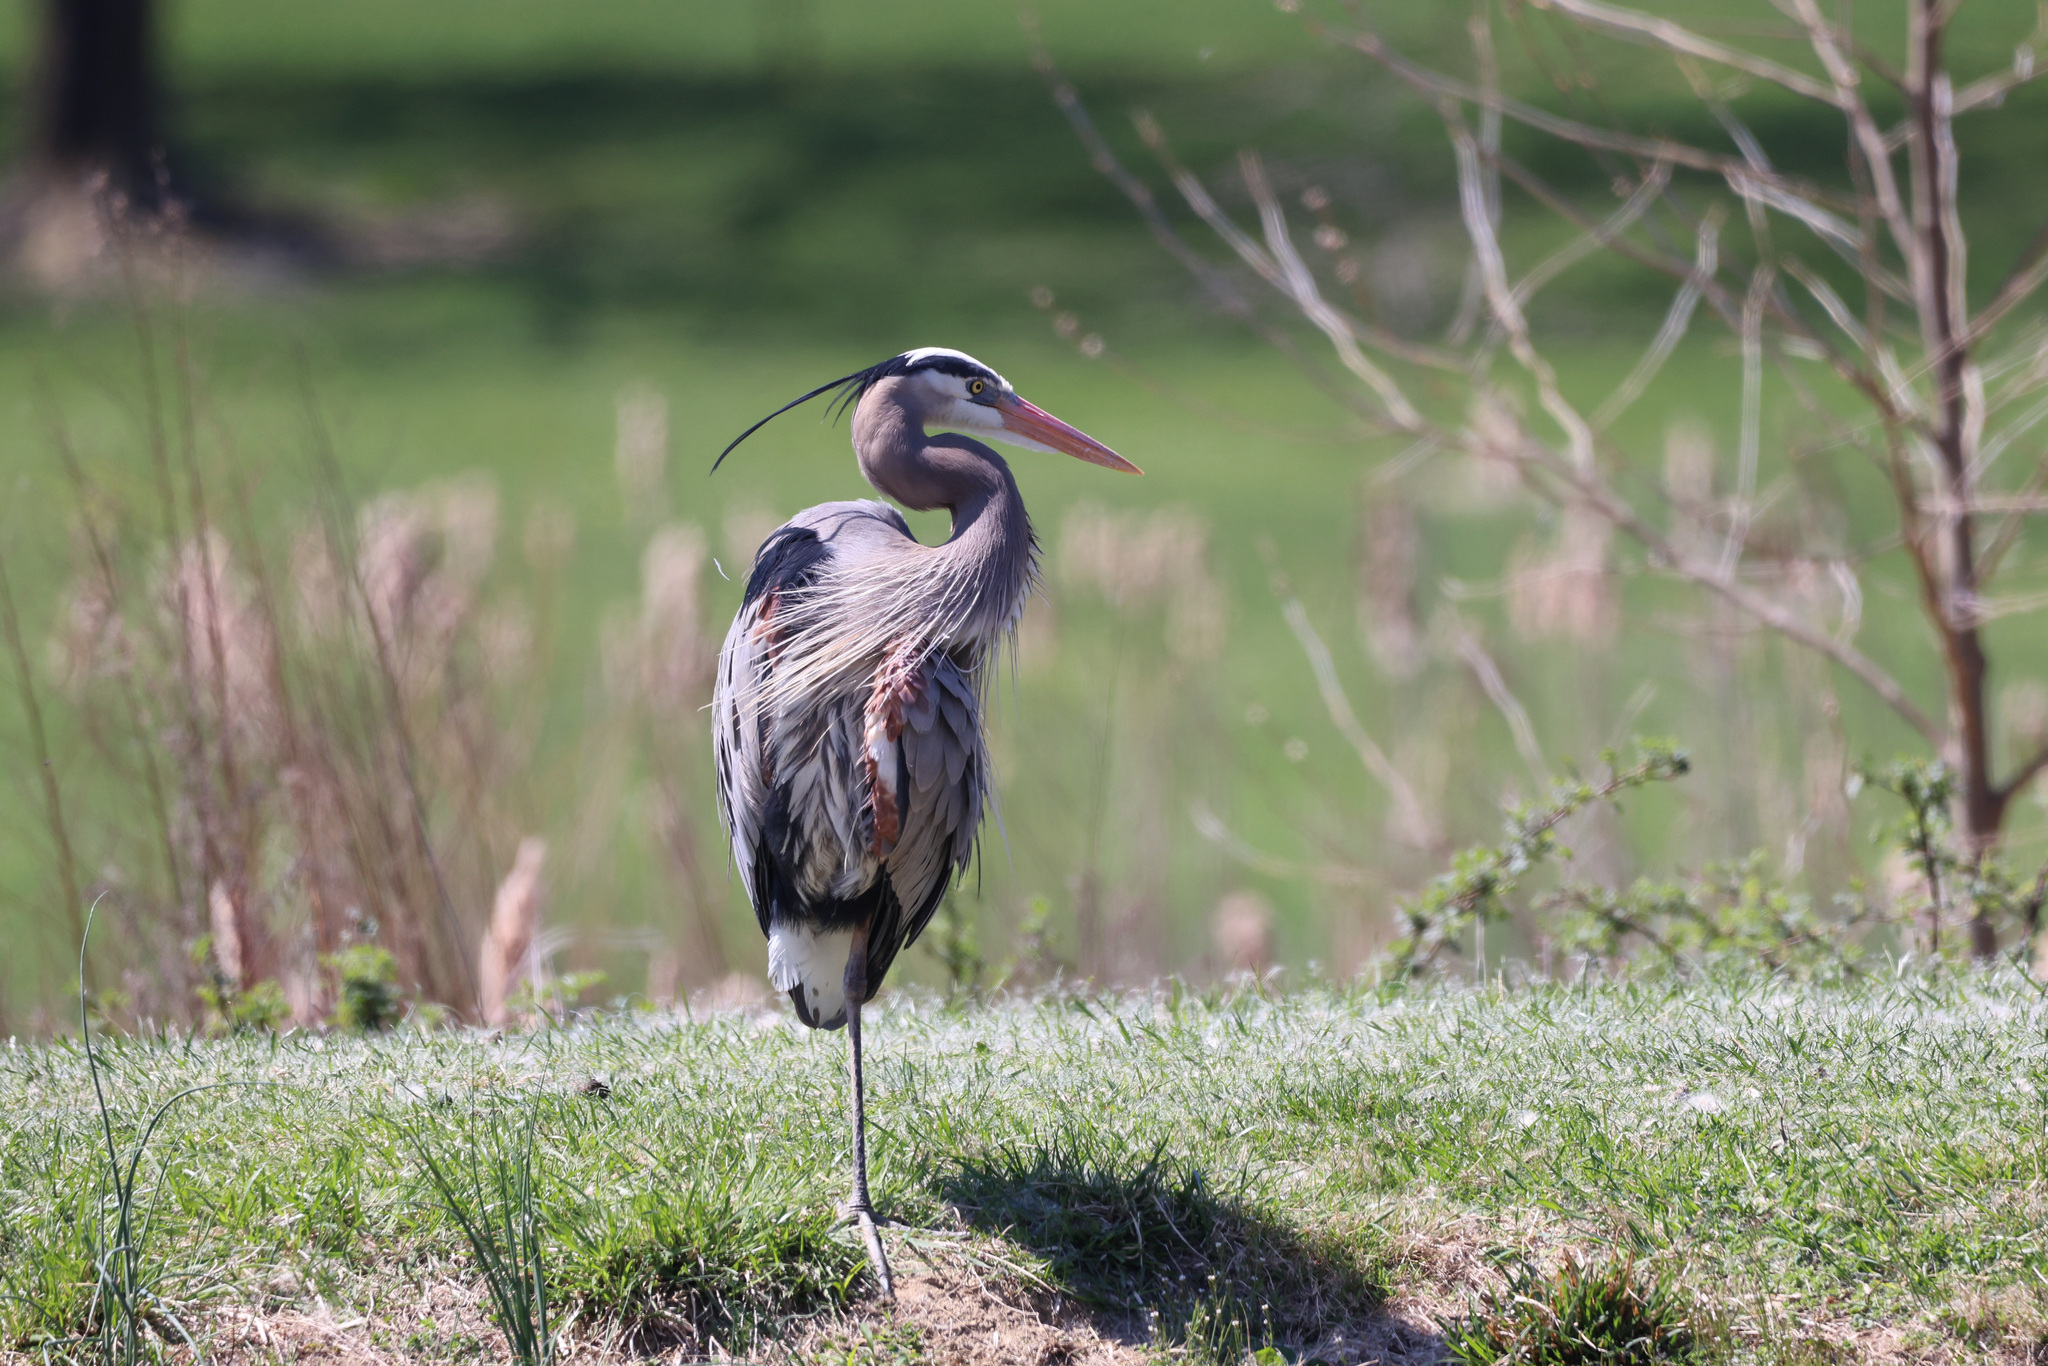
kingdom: Animalia
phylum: Chordata
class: Aves
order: Pelecaniformes
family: Ardeidae
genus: Ardea
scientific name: Ardea herodias
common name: Great blue heron
